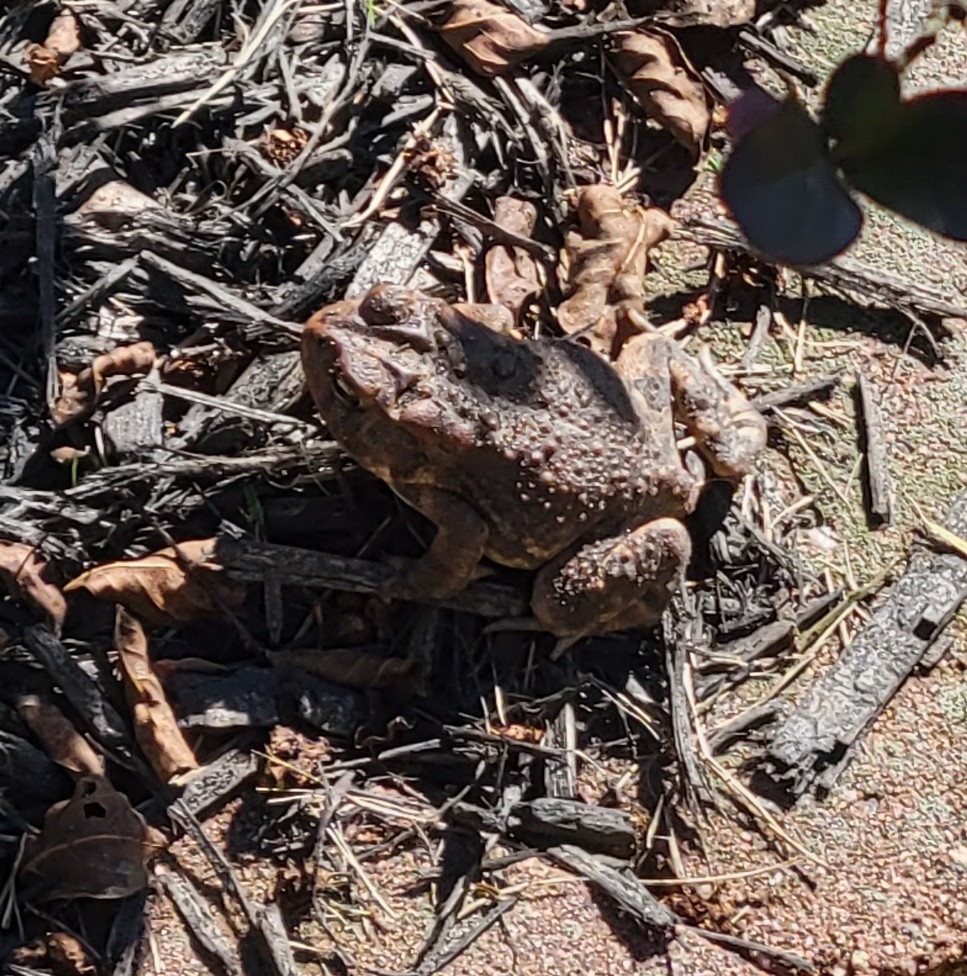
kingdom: Animalia
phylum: Chordata
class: Amphibia
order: Anura
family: Bufonidae
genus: Anaxyrus
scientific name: Anaxyrus terrestris
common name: Southern toad
